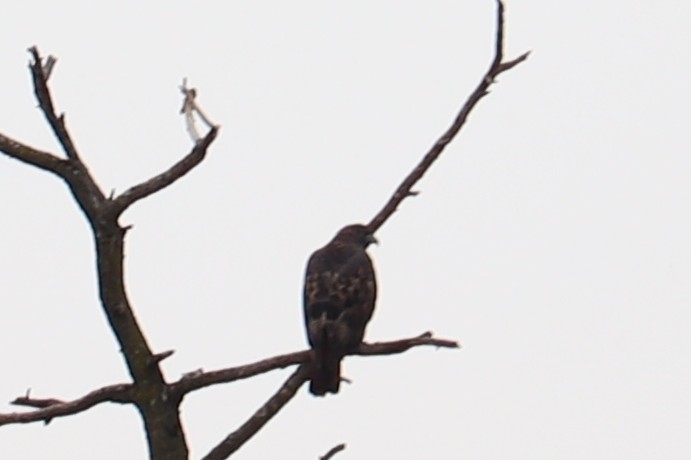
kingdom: Animalia
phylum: Chordata
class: Aves
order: Accipitriformes
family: Accipitridae
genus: Buteo
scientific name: Buteo jamaicensis
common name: Red-tailed hawk
